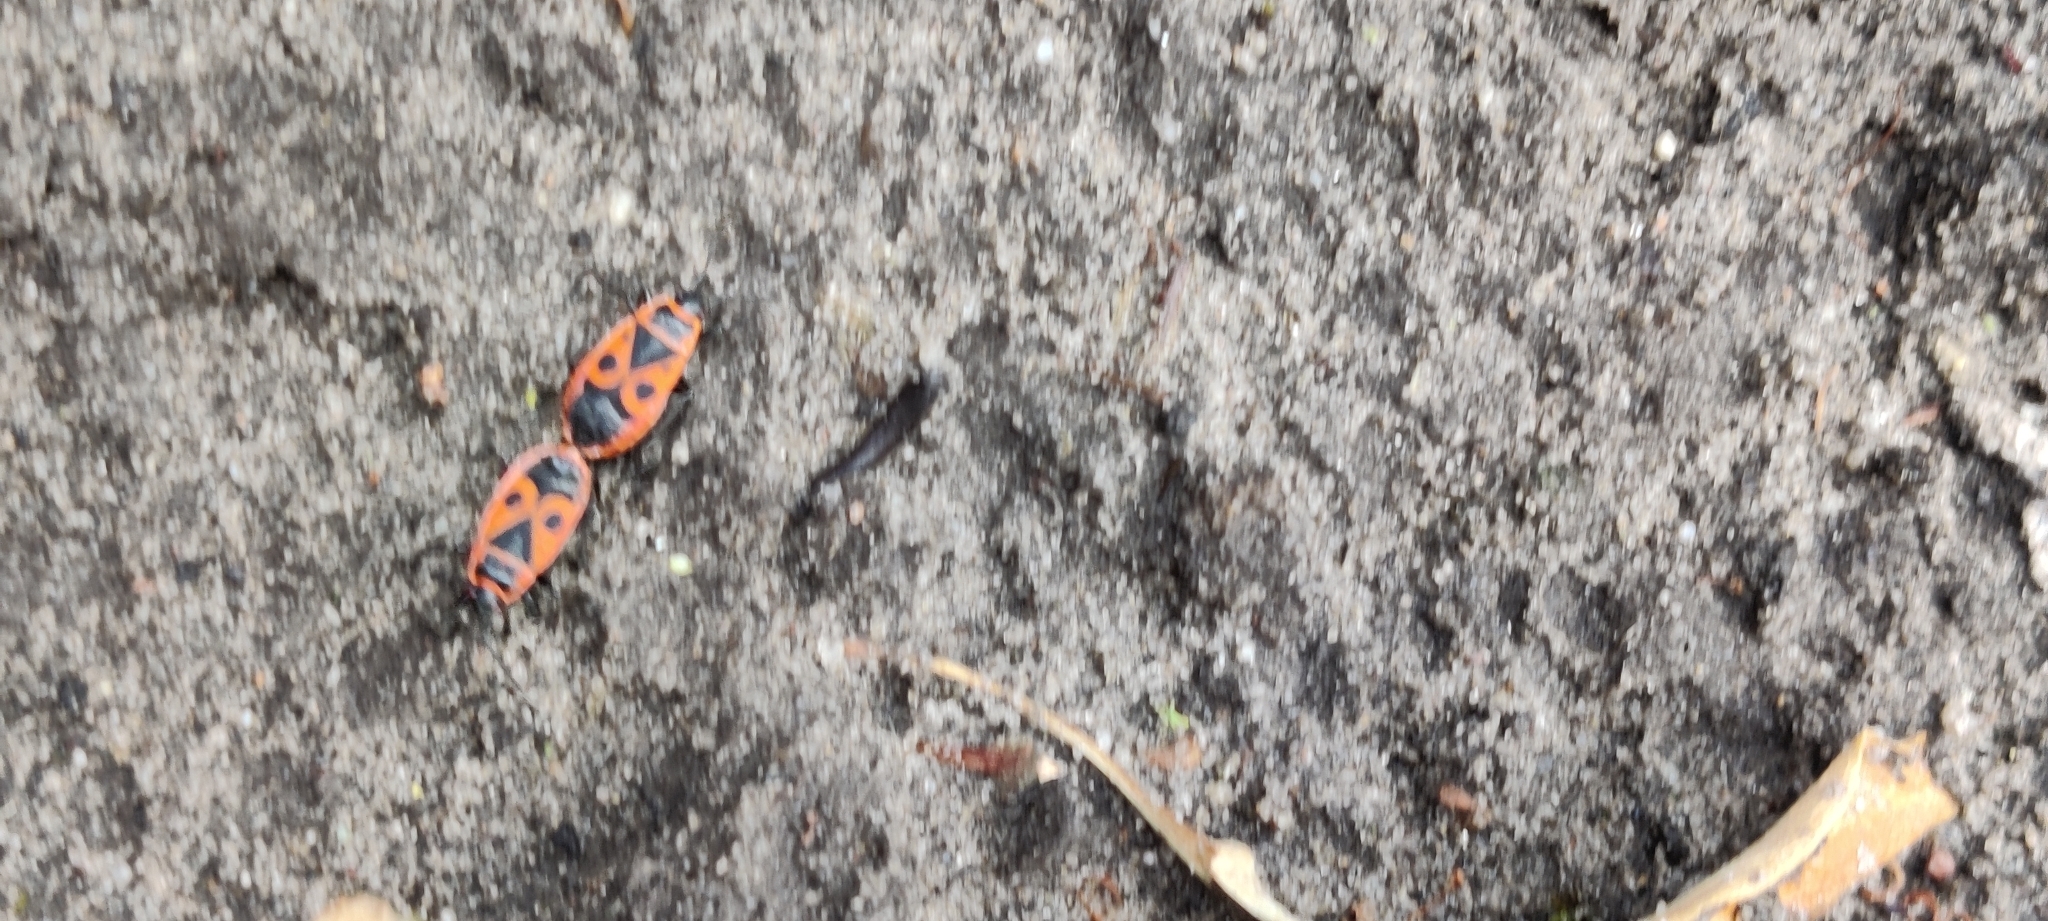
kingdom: Animalia
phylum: Arthropoda
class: Insecta
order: Hemiptera
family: Pyrrhocoridae
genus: Pyrrhocoris
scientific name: Pyrrhocoris apterus
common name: Firebug
